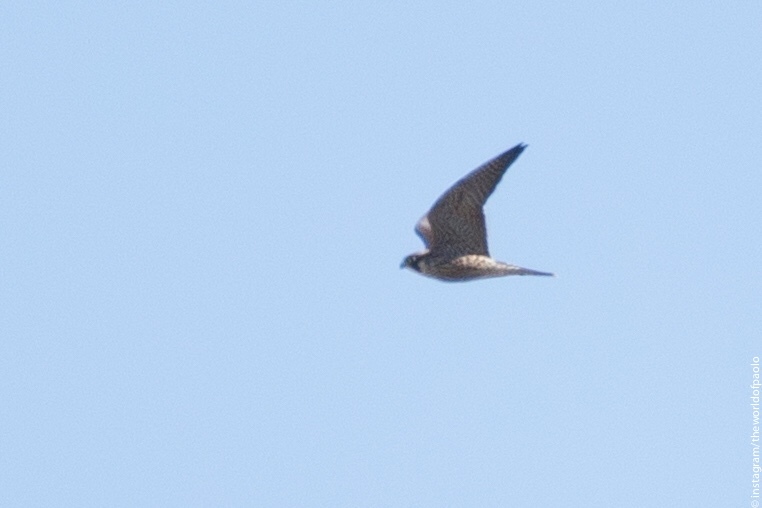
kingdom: Animalia
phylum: Chordata
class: Aves
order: Falconiformes
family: Falconidae
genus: Falco
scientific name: Falco peregrinus
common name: Peregrine falcon
